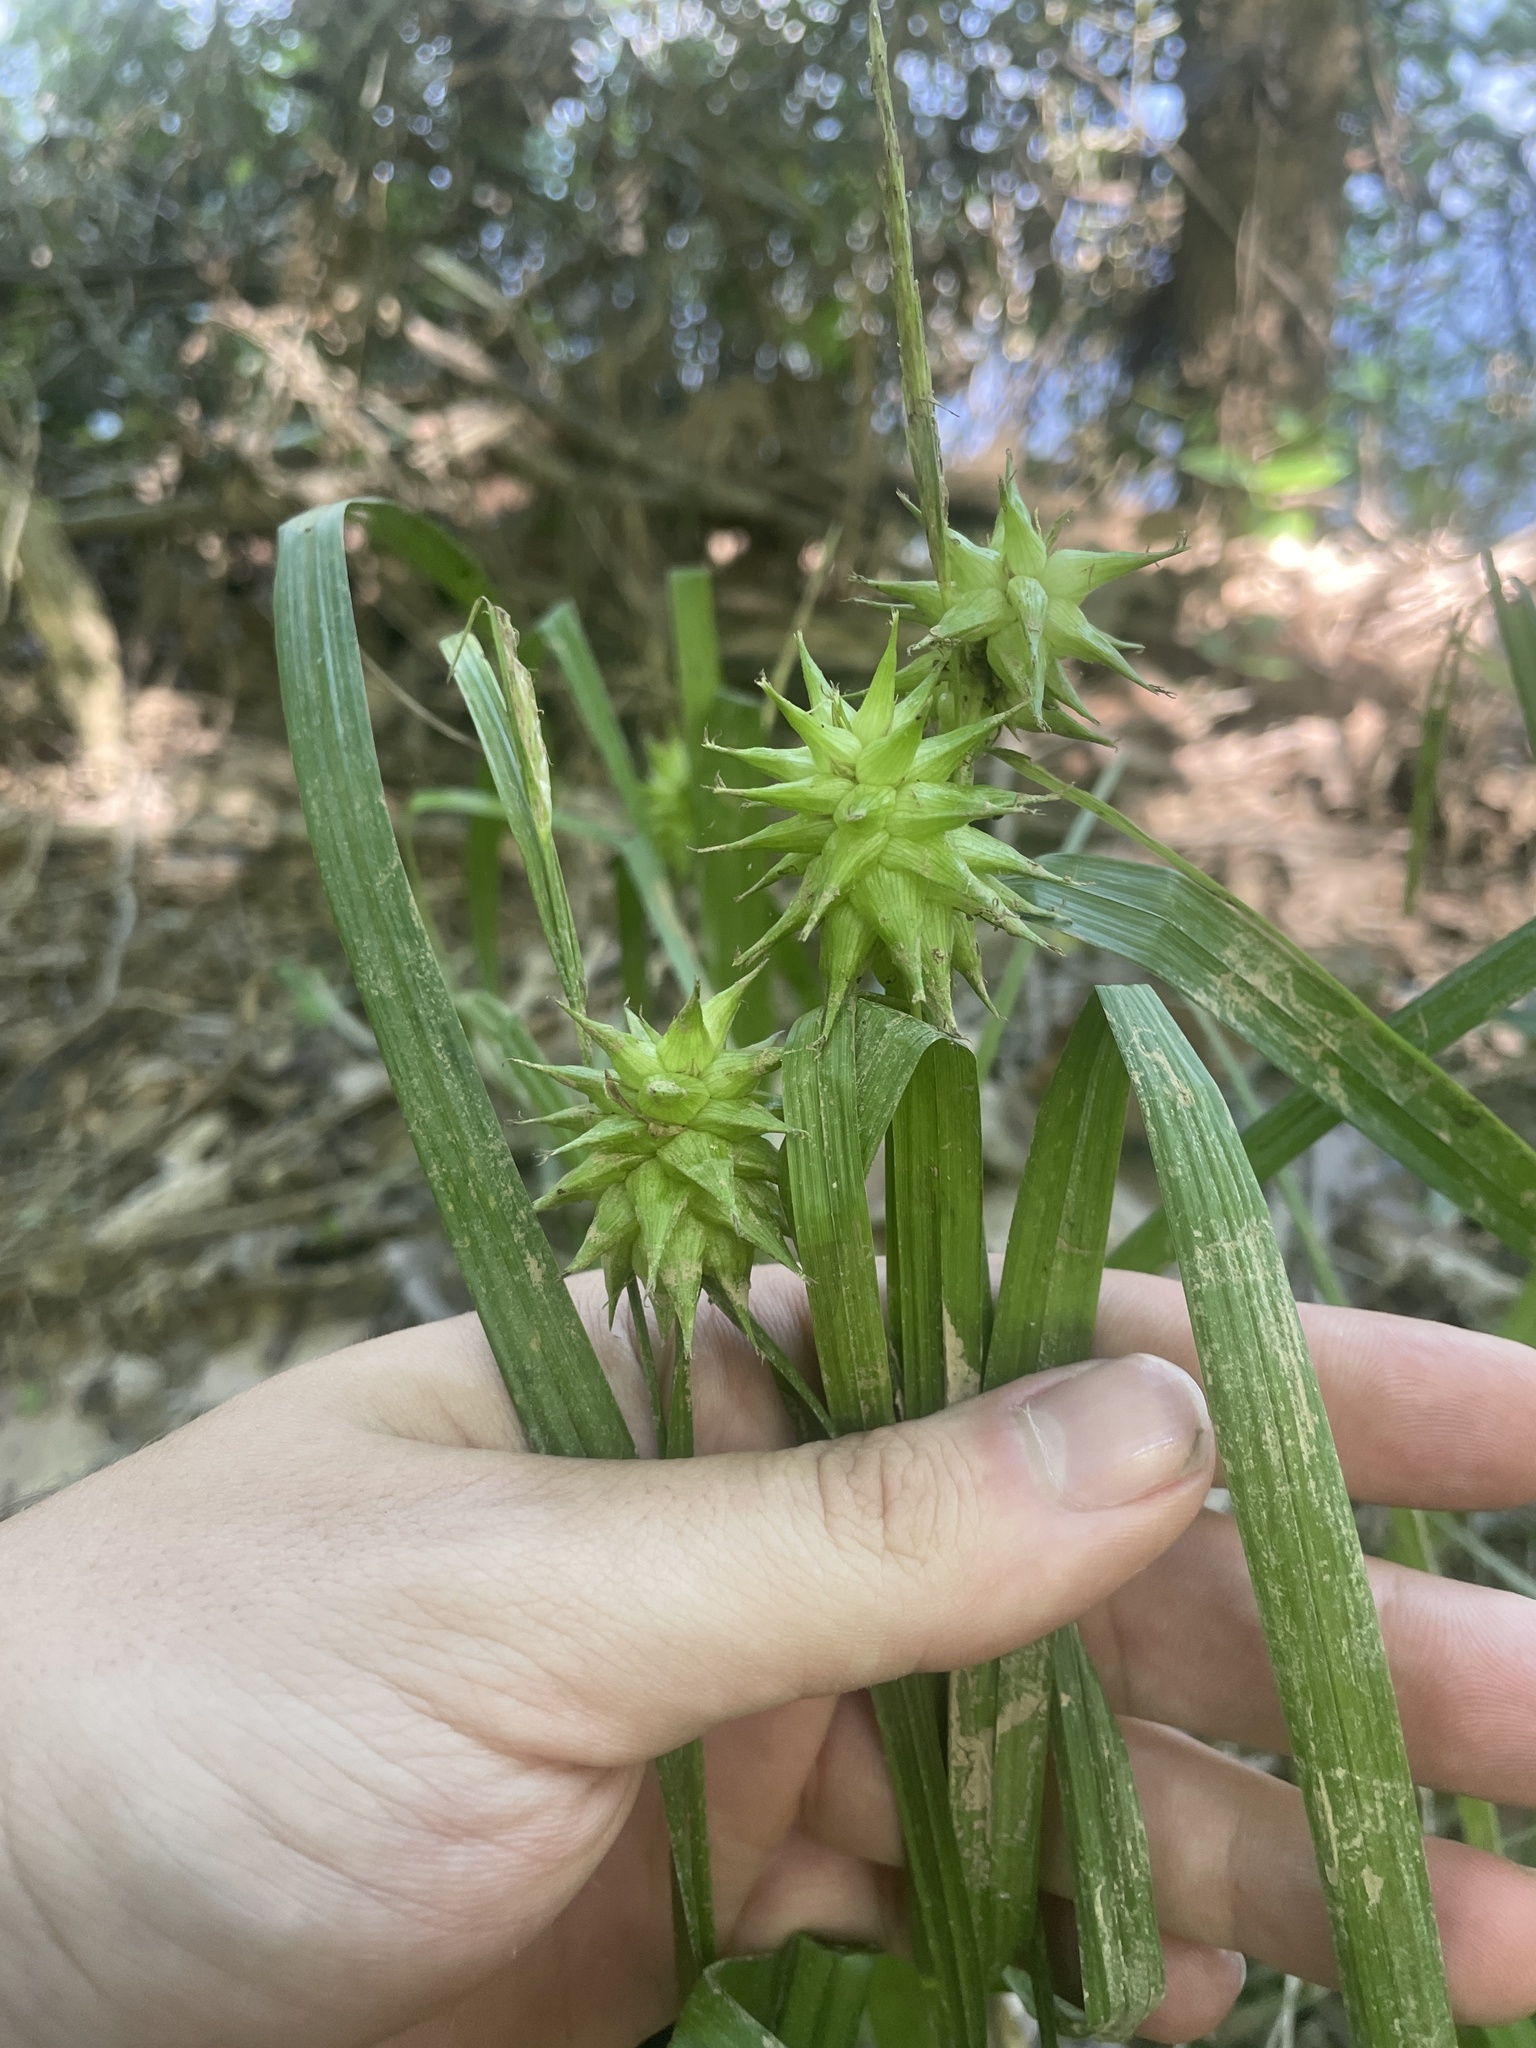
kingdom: Plantae
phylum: Tracheophyta
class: Liliopsida
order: Poales
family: Cyperaceae
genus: Carex
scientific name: Carex grayi
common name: Asa gray's sedge
